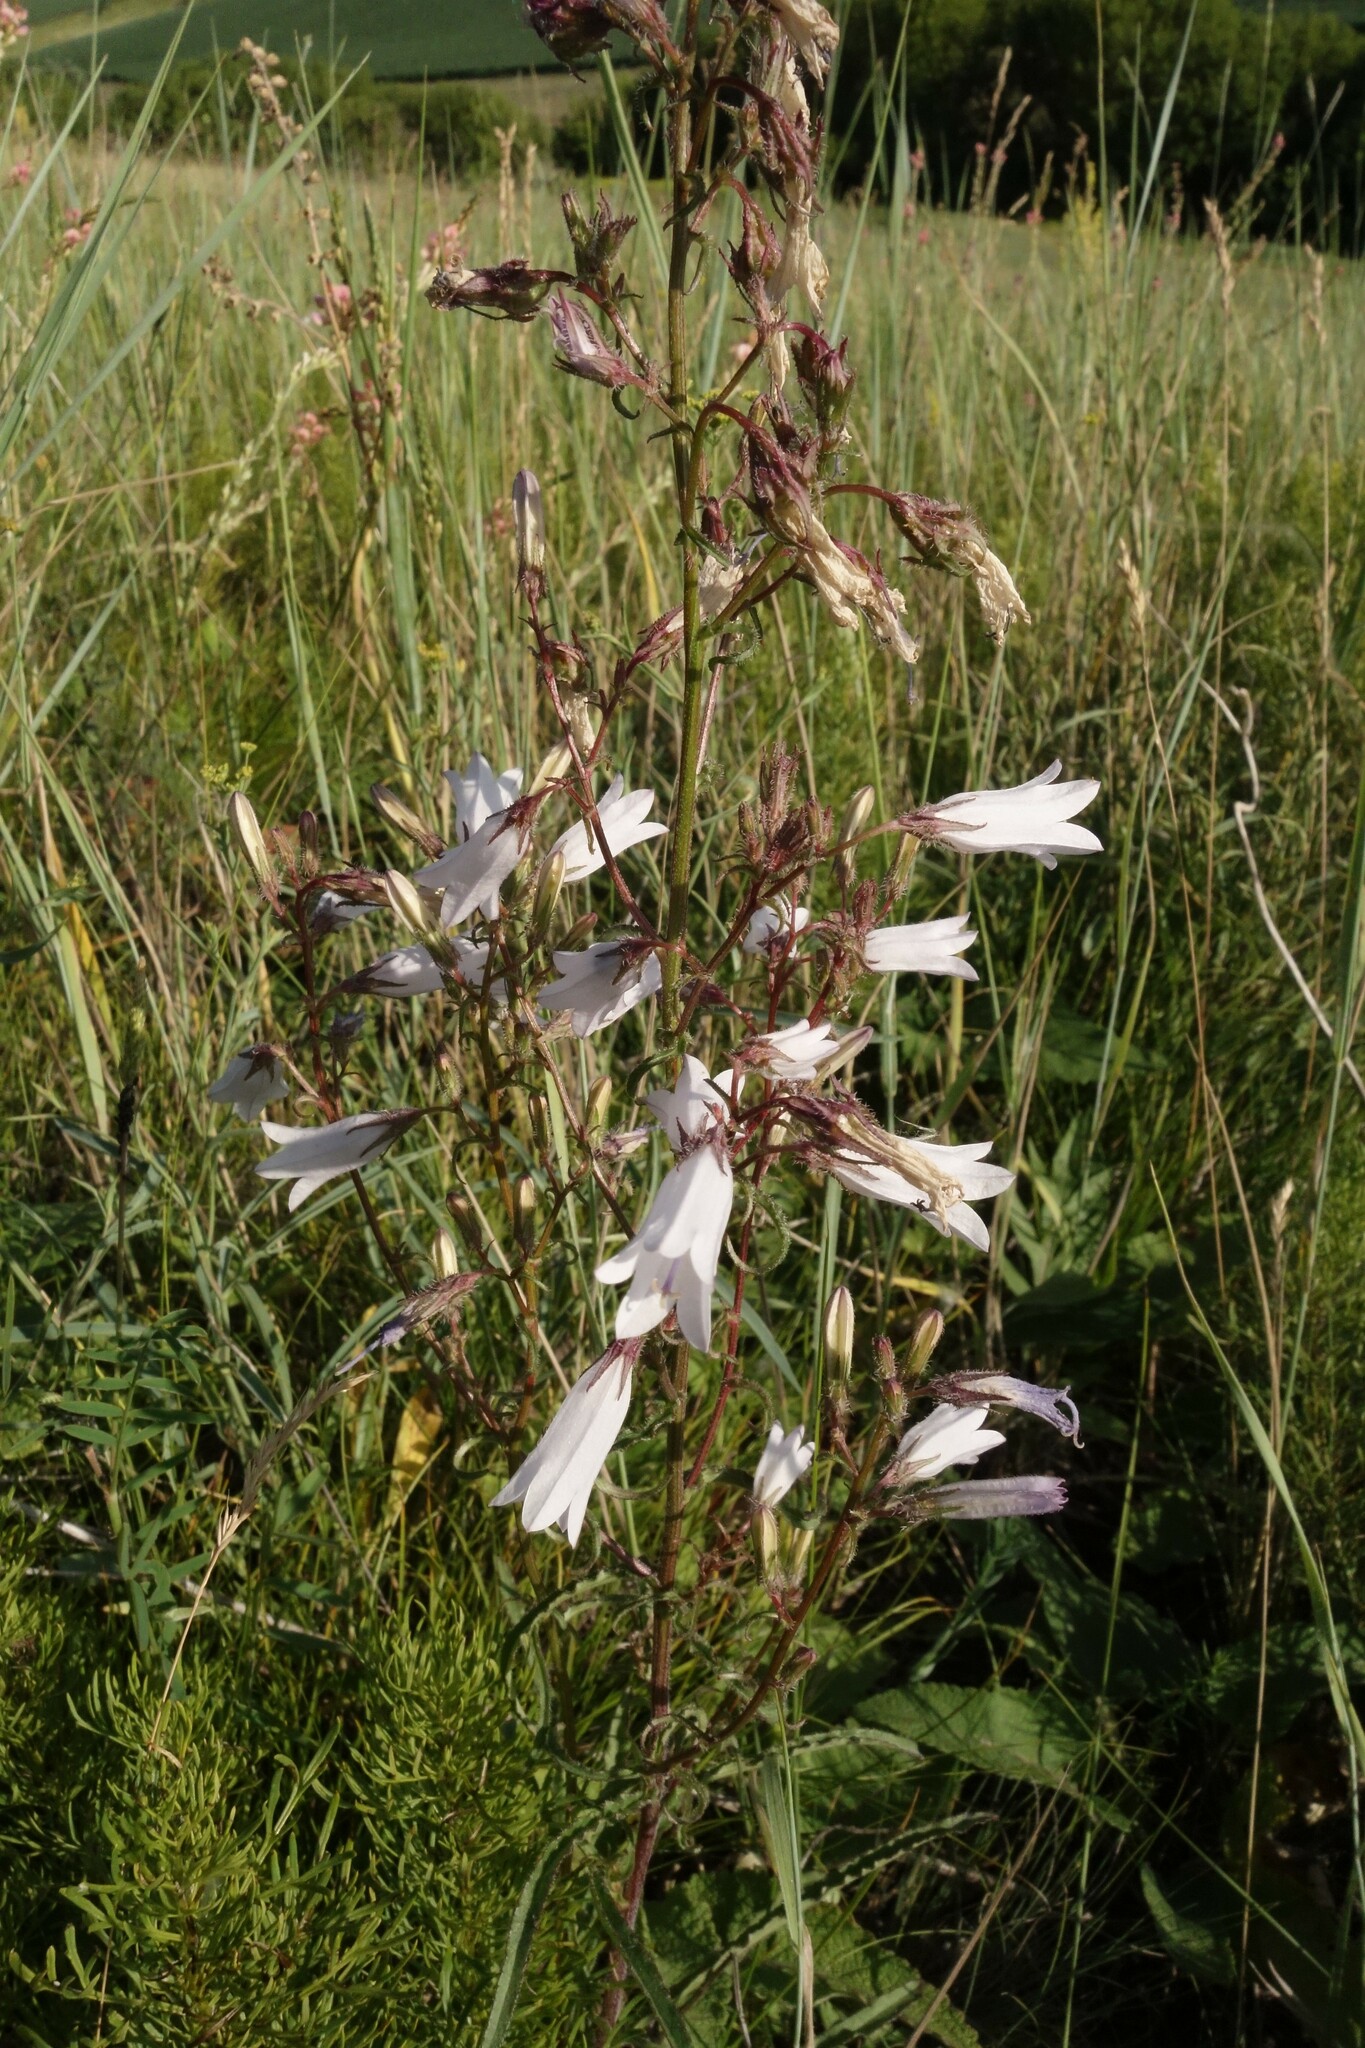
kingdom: Plantae
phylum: Tracheophyta
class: Magnoliopsida
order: Asterales
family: Campanulaceae
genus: Campanula
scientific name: Campanula sibirica
